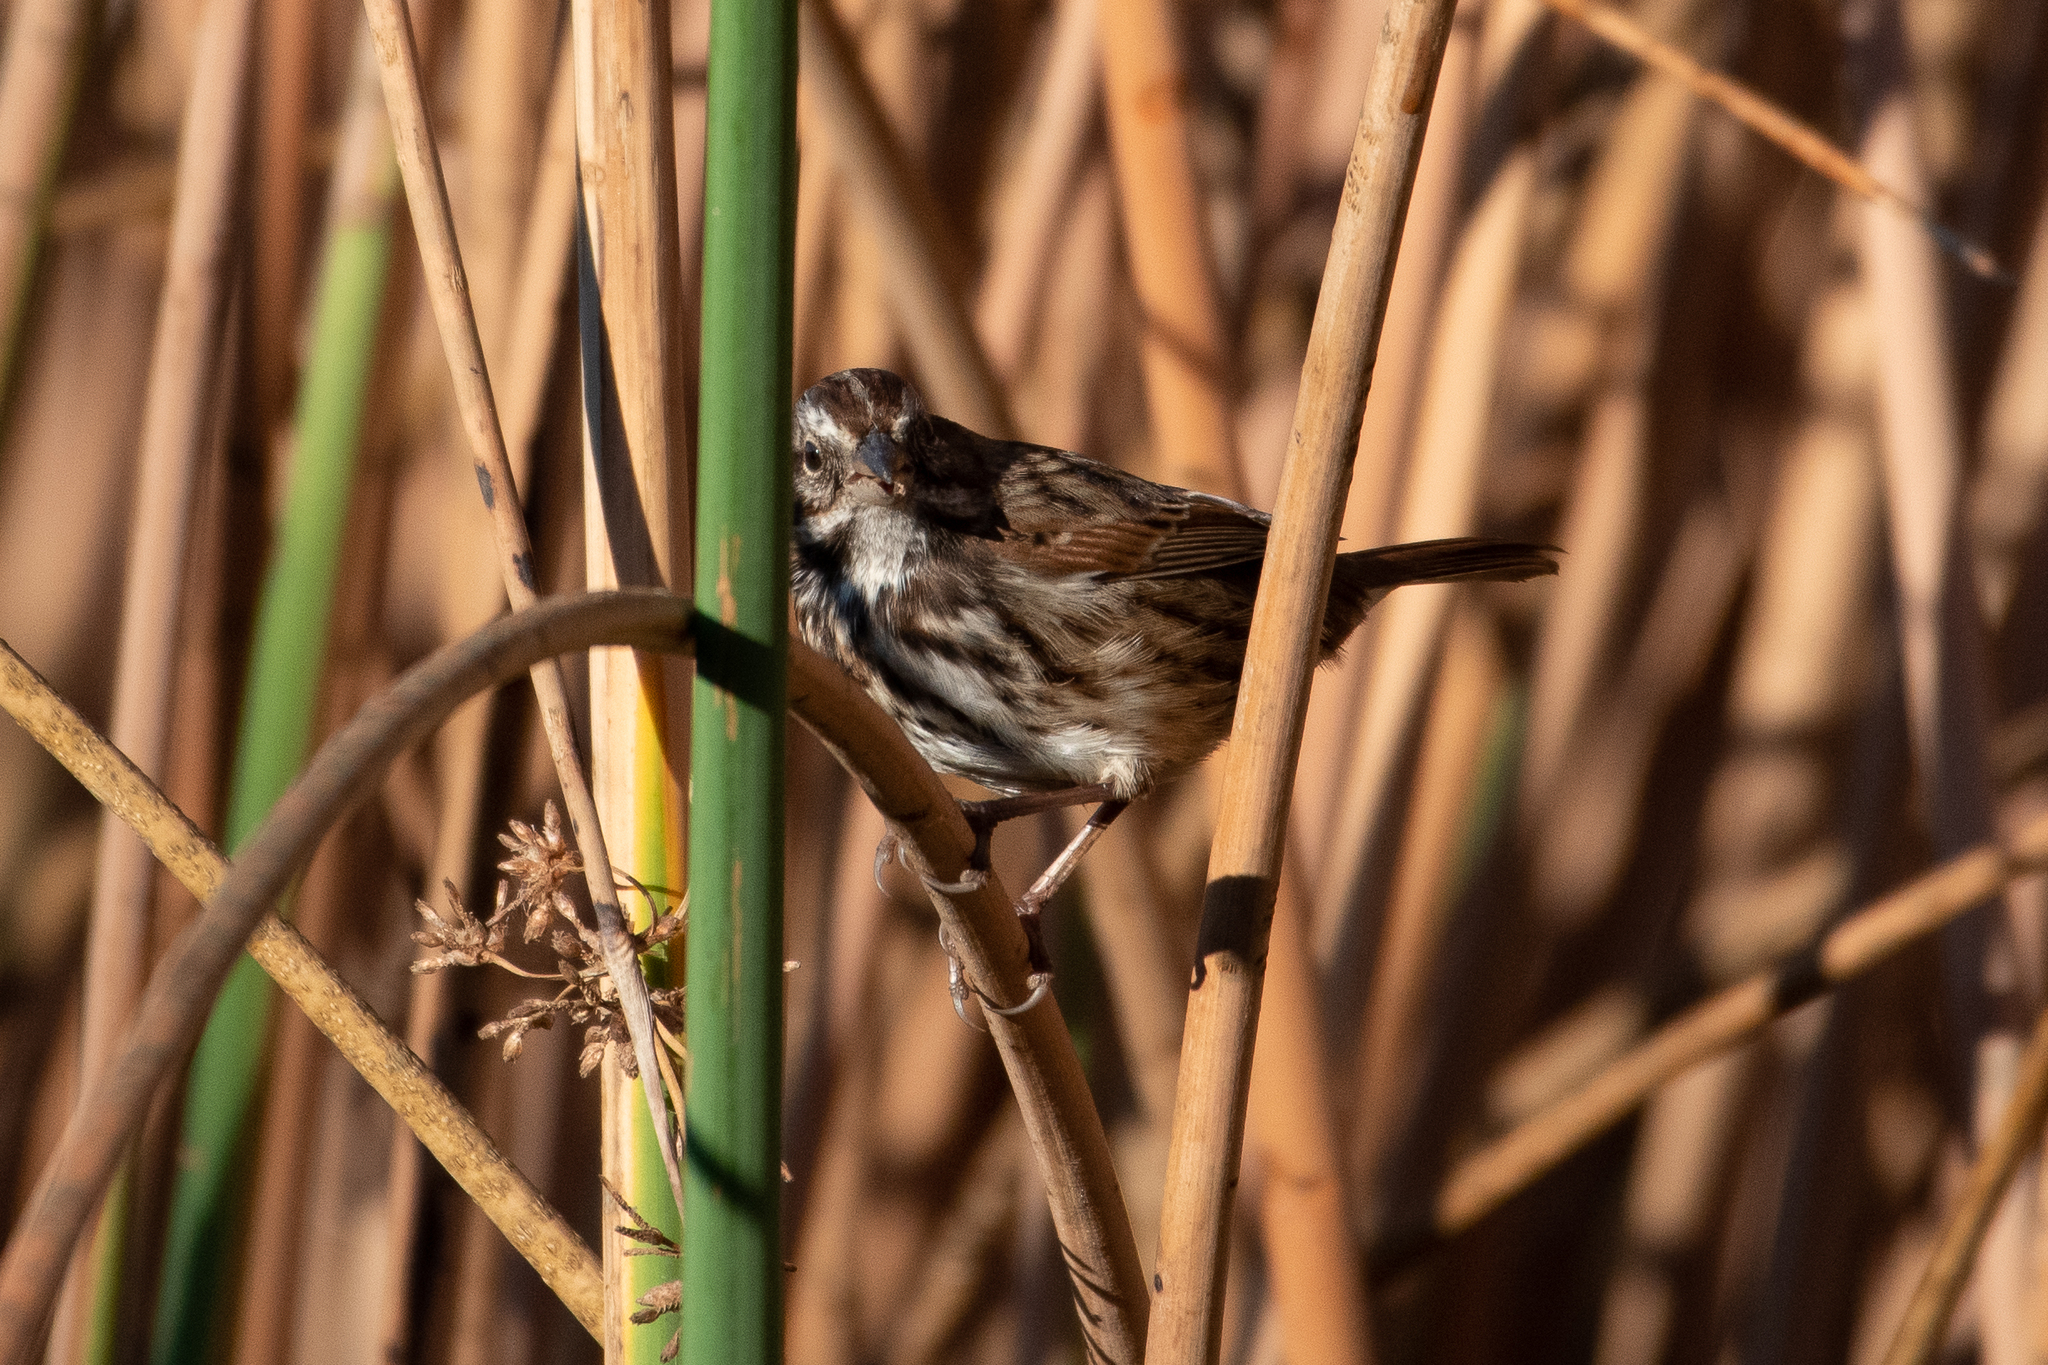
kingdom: Animalia
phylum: Chordata
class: Aves
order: Passeriformes
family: Passerellidae
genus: Melospiza
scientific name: Melospiza melodia
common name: Song sparrow
